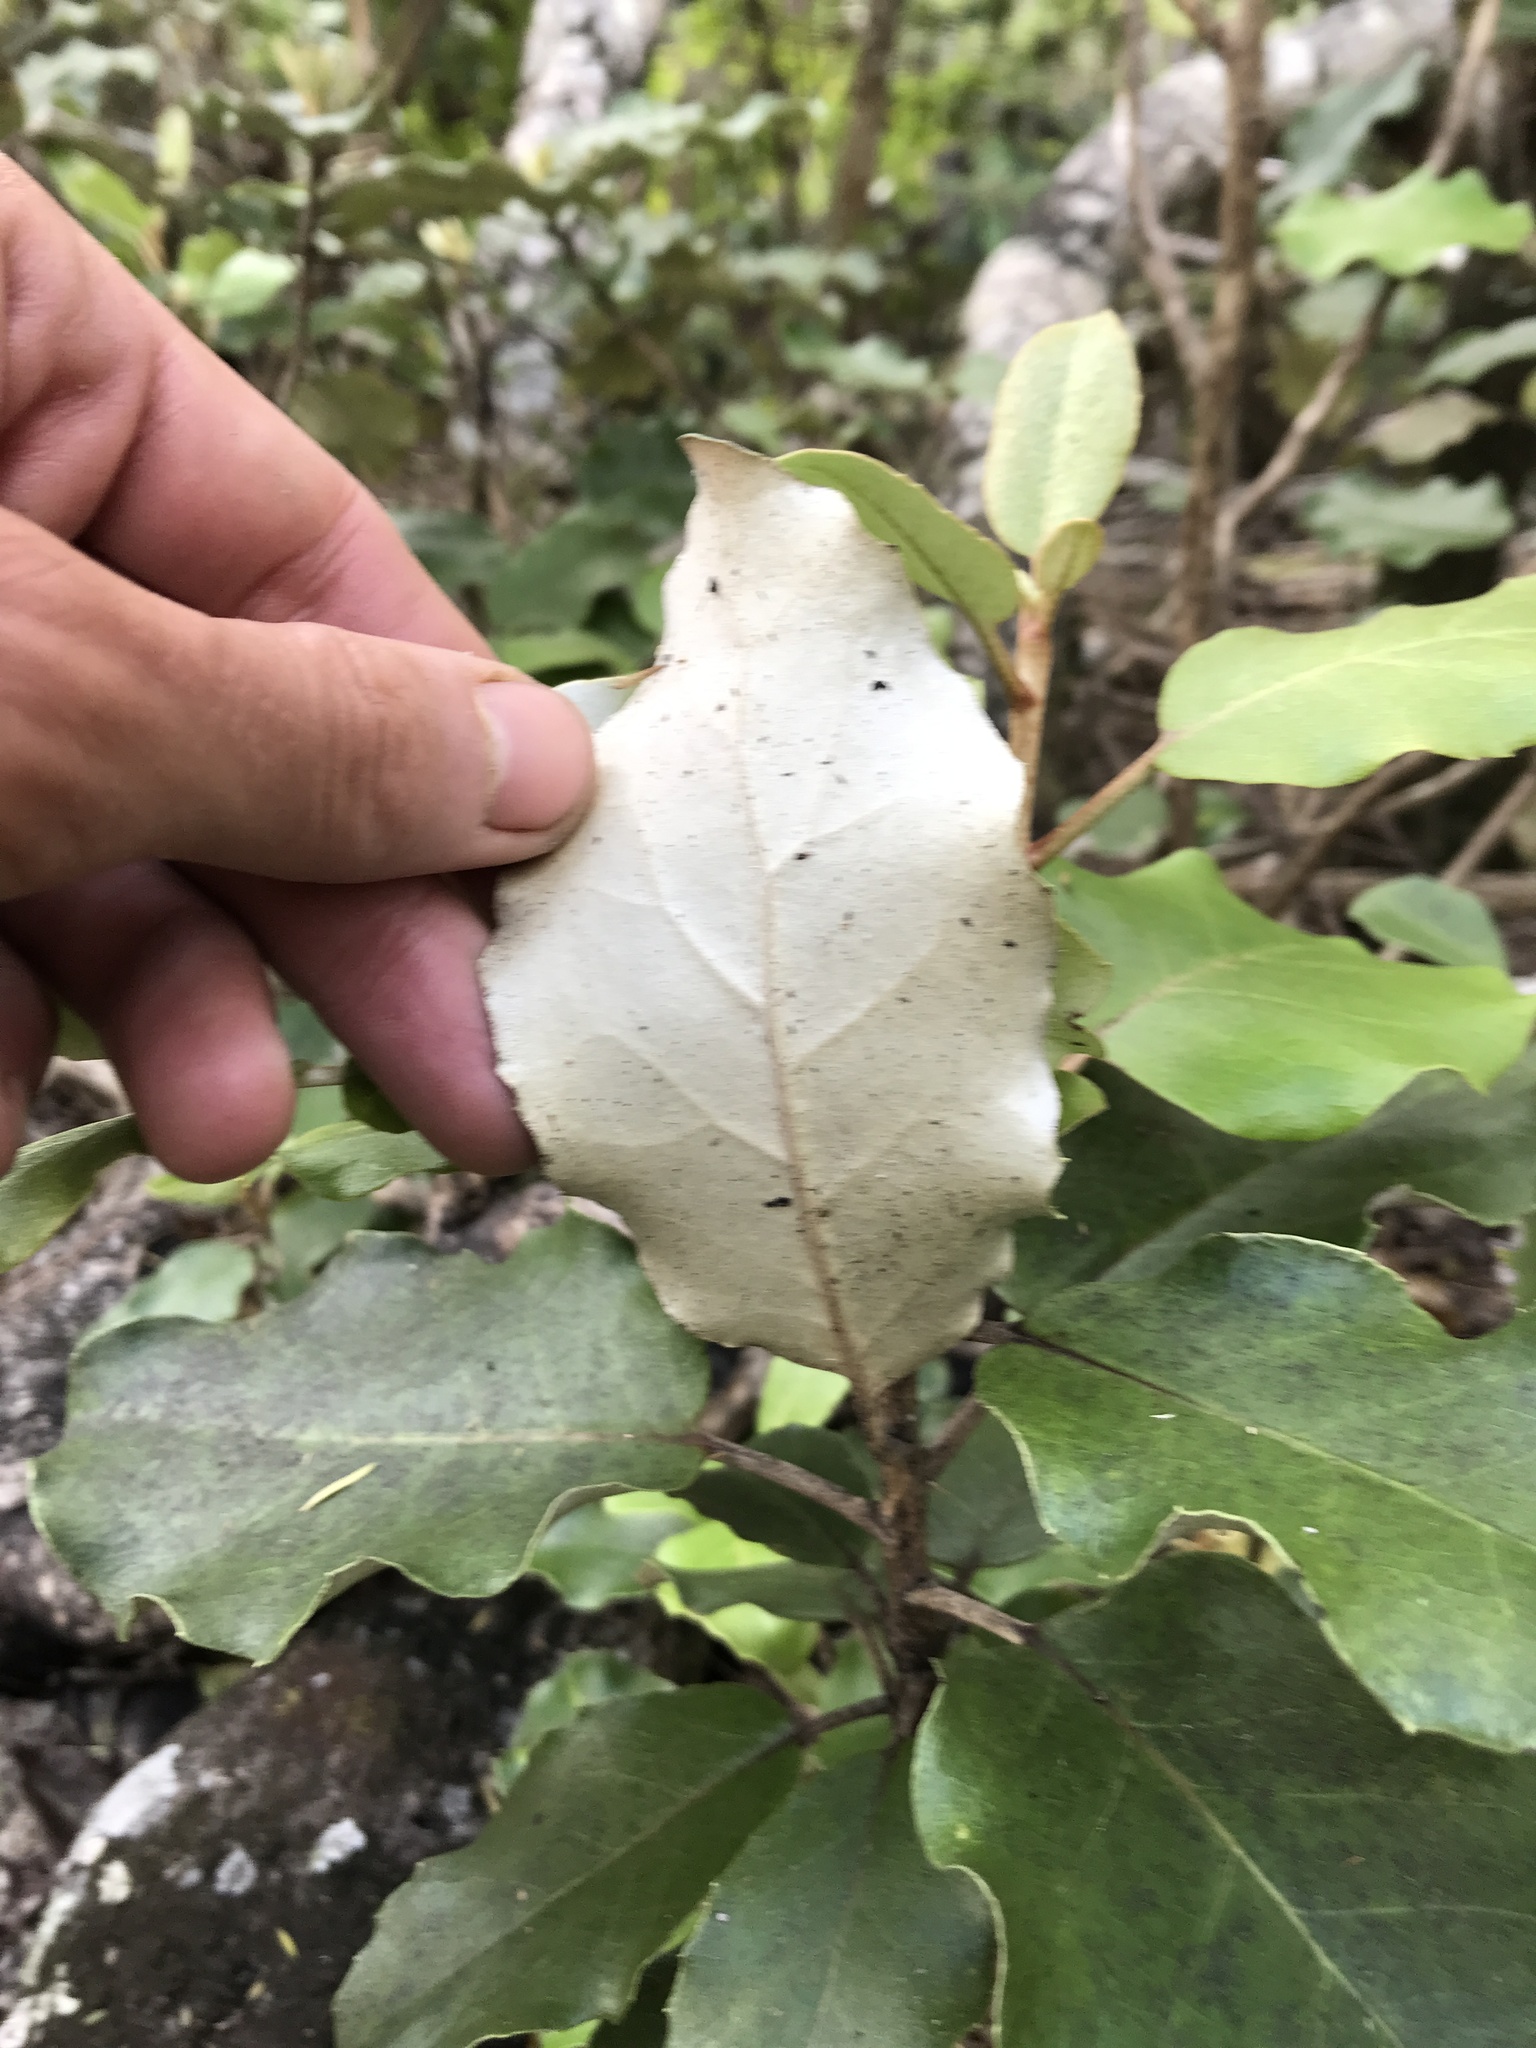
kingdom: Plantae
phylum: Tracheophyta
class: Magnoliopsida
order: Asterales
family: Asteraceae
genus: Olearia
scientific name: Olearia furfuracea
